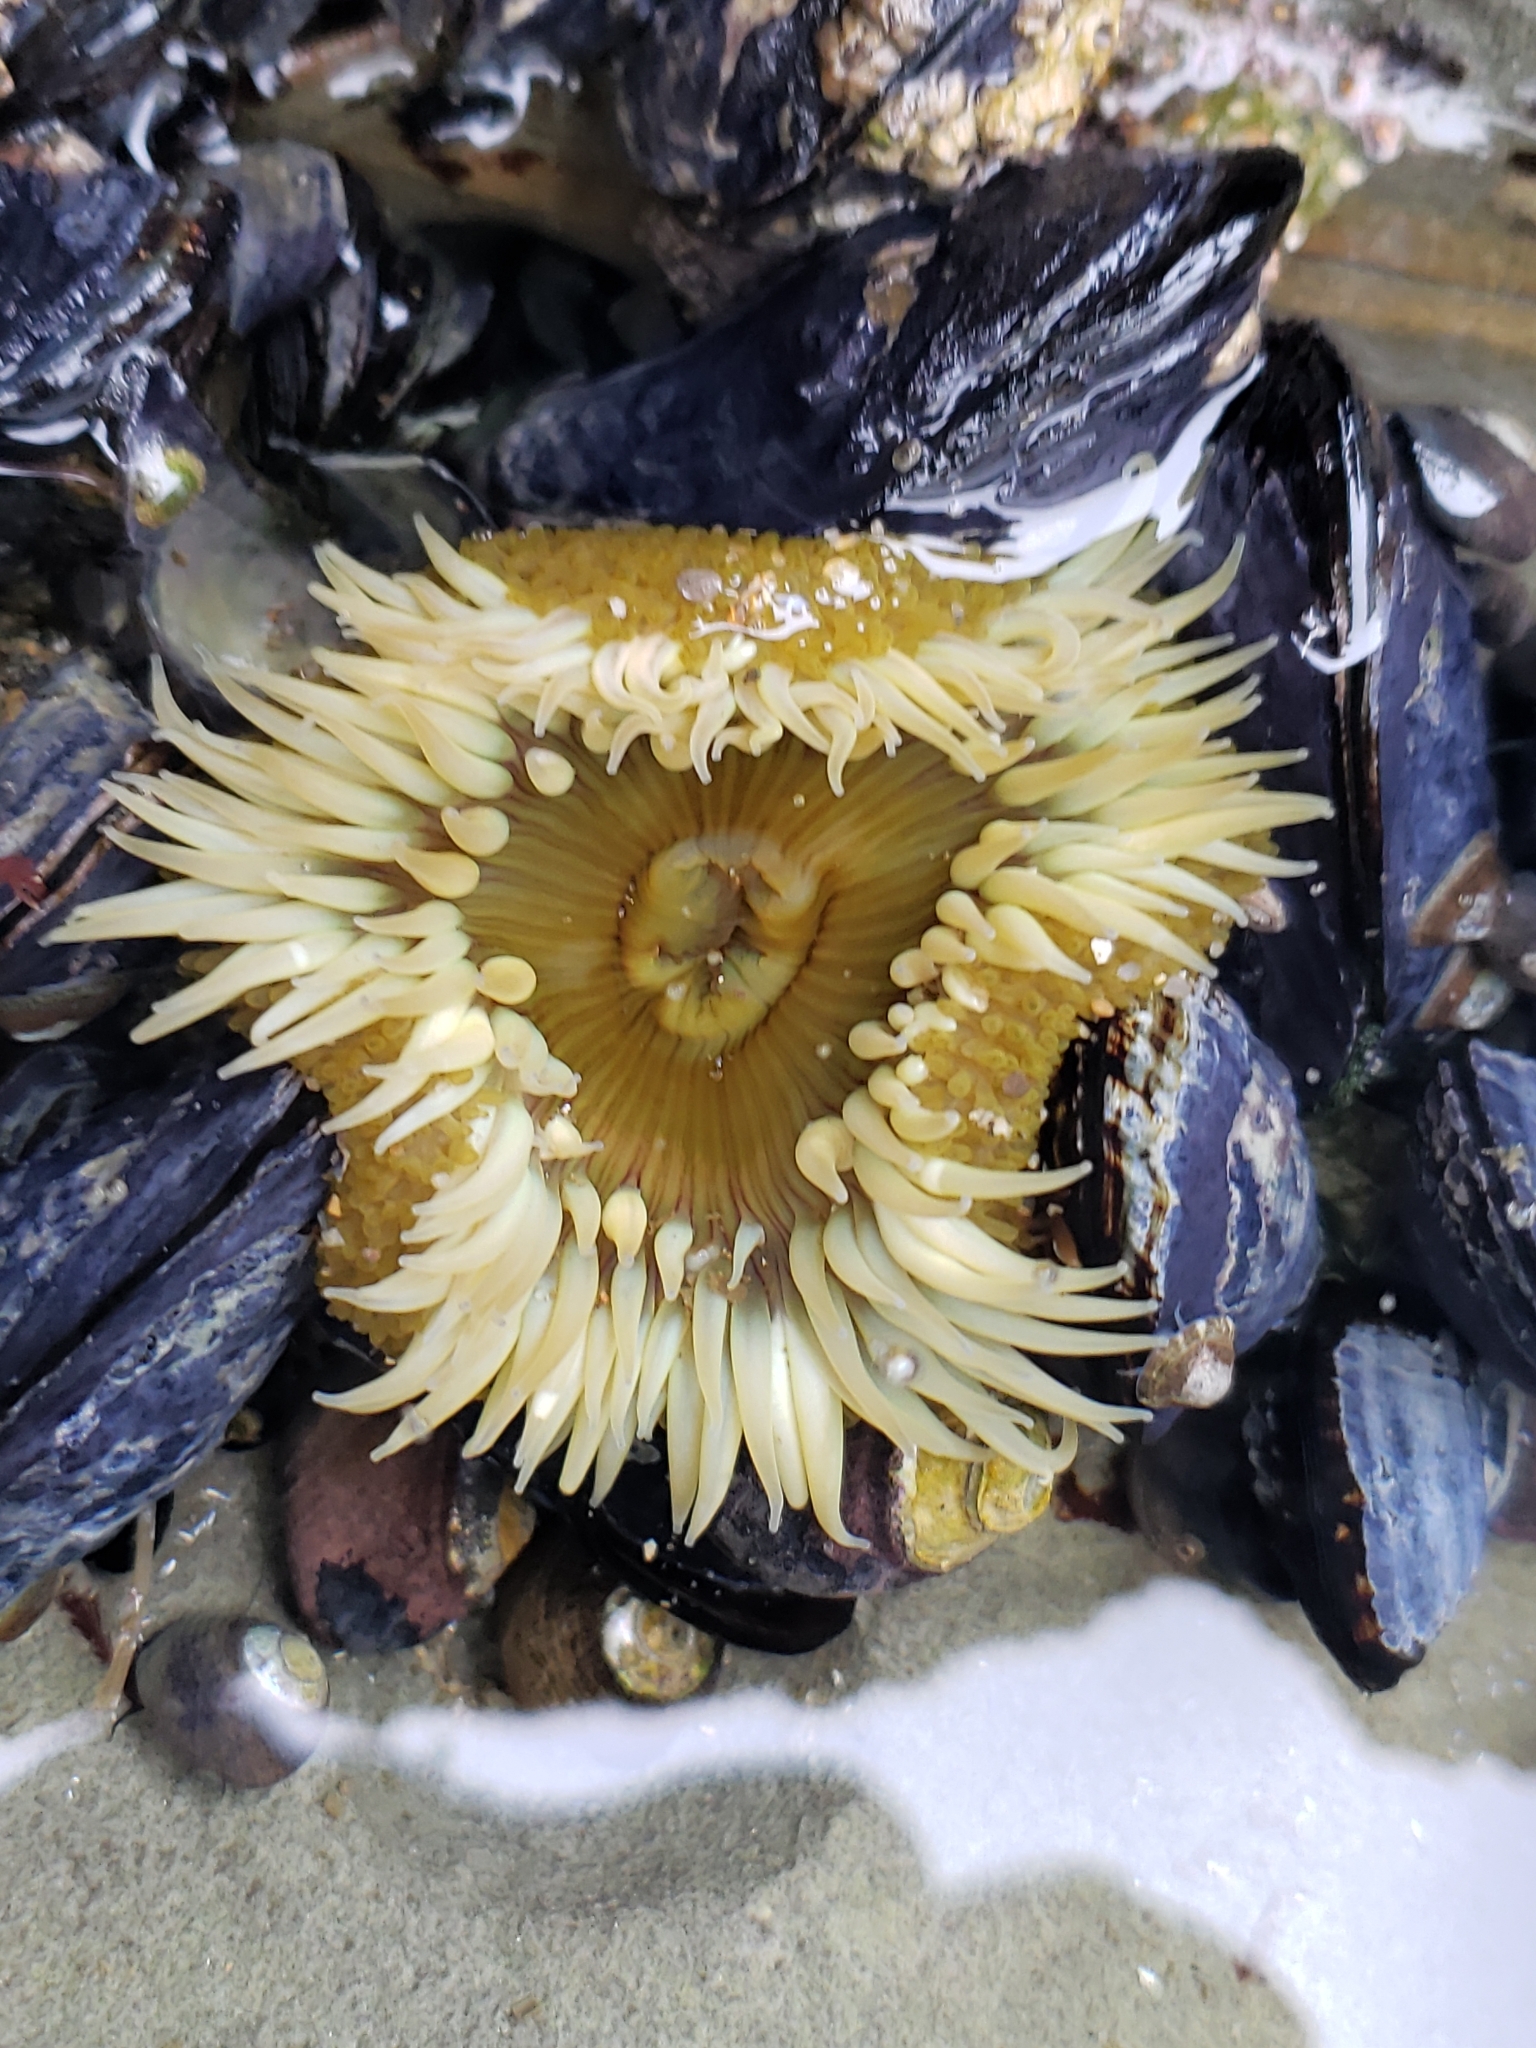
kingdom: Animalia
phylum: Cnidaria
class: Anthozoa
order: Actiniaria
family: Actiniidae
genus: Anthopleura
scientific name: Anthopleura sola
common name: Sun anemone
